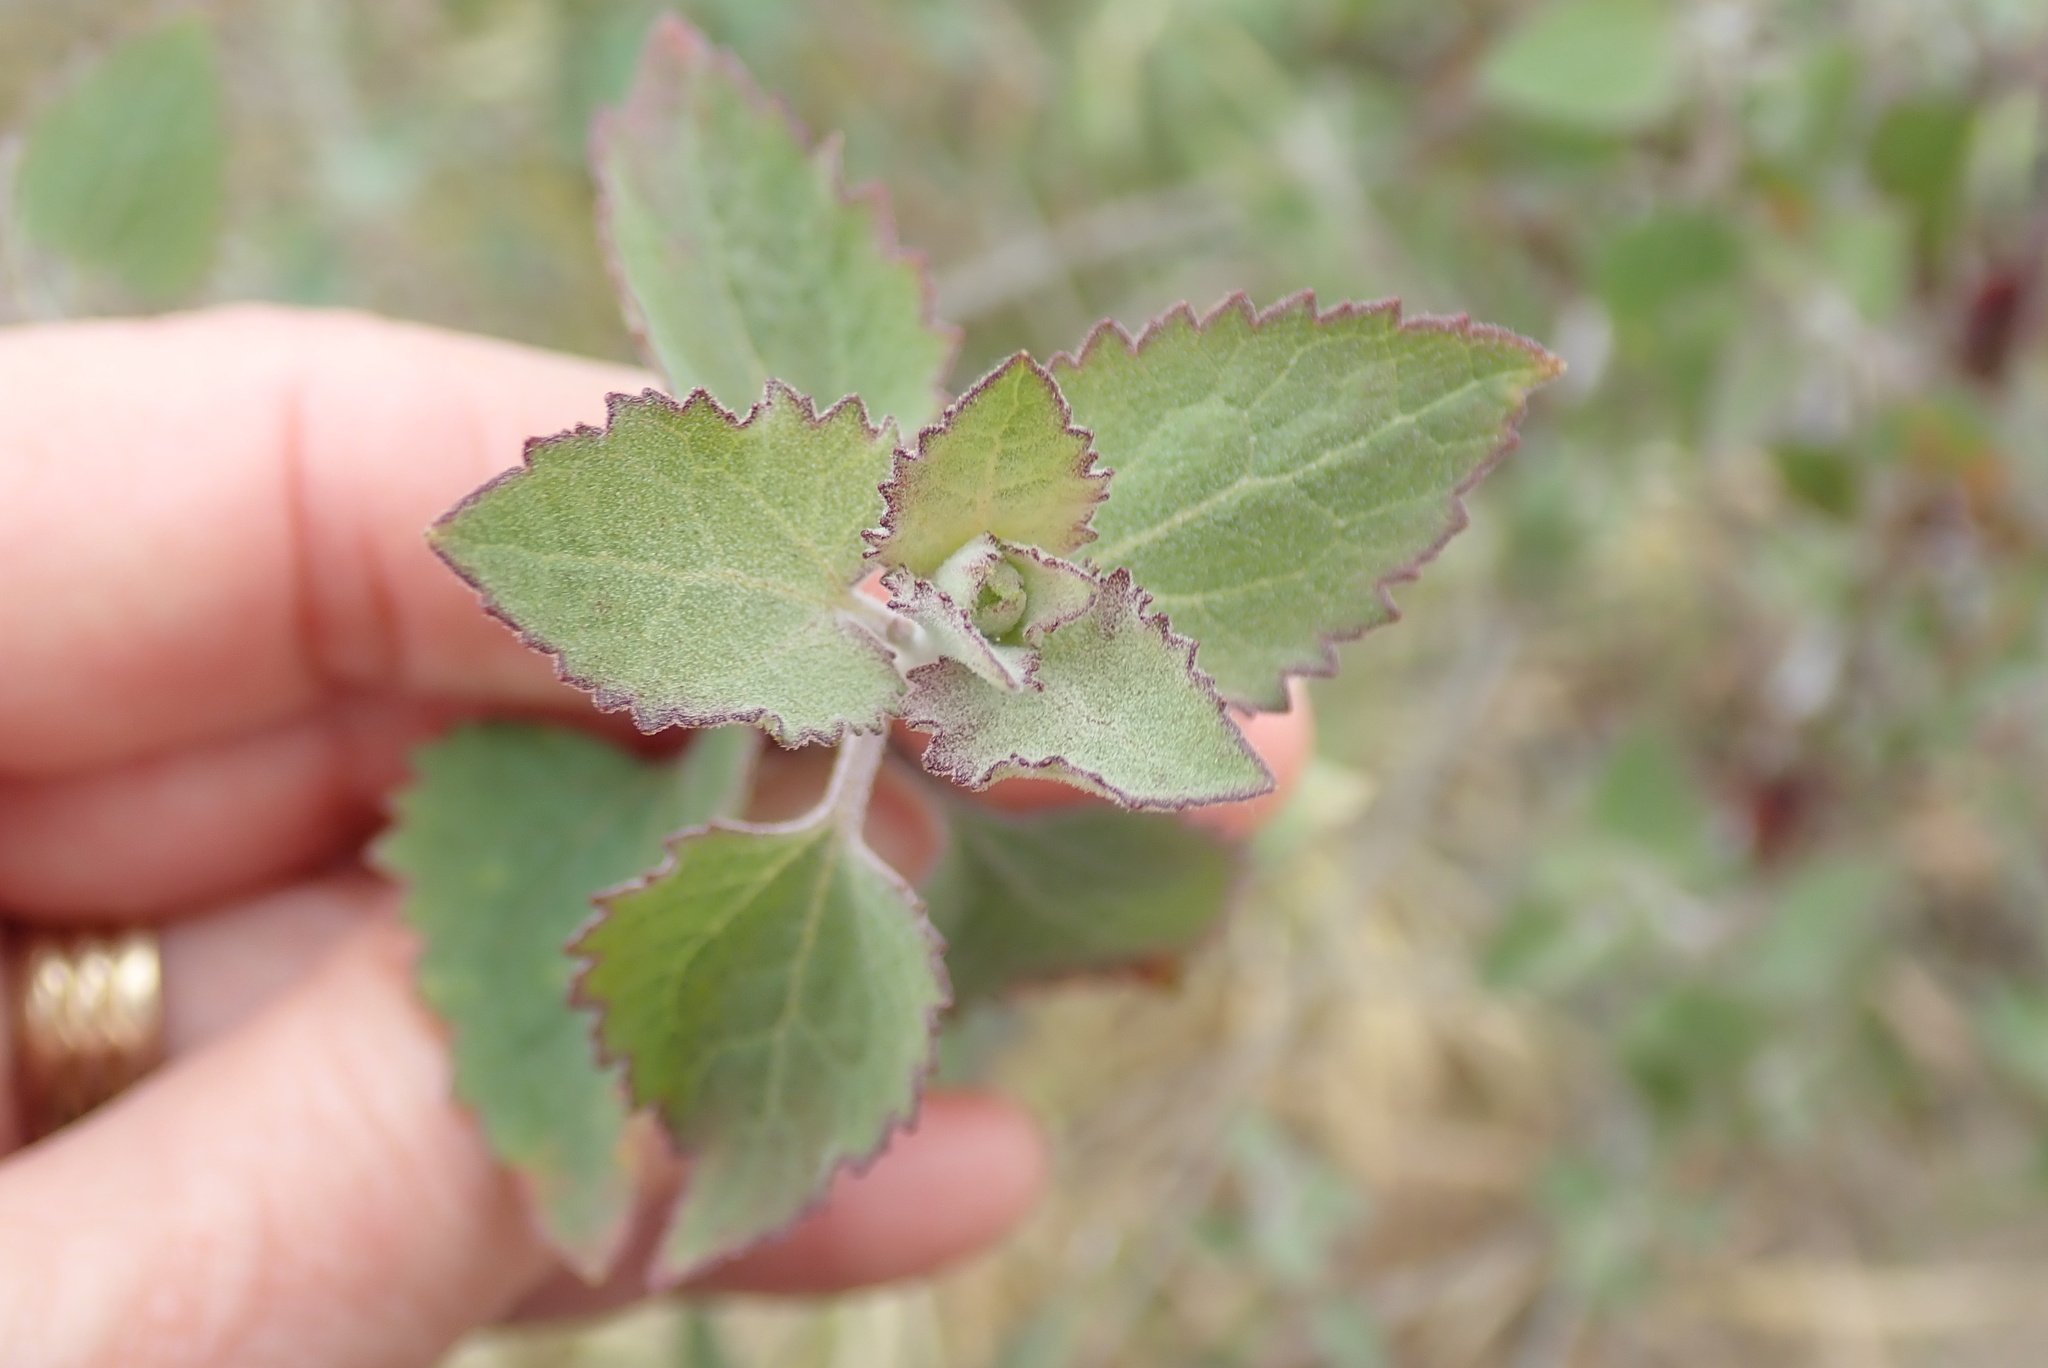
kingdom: Plantae
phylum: Tracheophyta
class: Magnoliopsida
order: Asterales
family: Asteraceae
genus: Brickellia
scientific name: Brickellia californica
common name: California brickellbush
